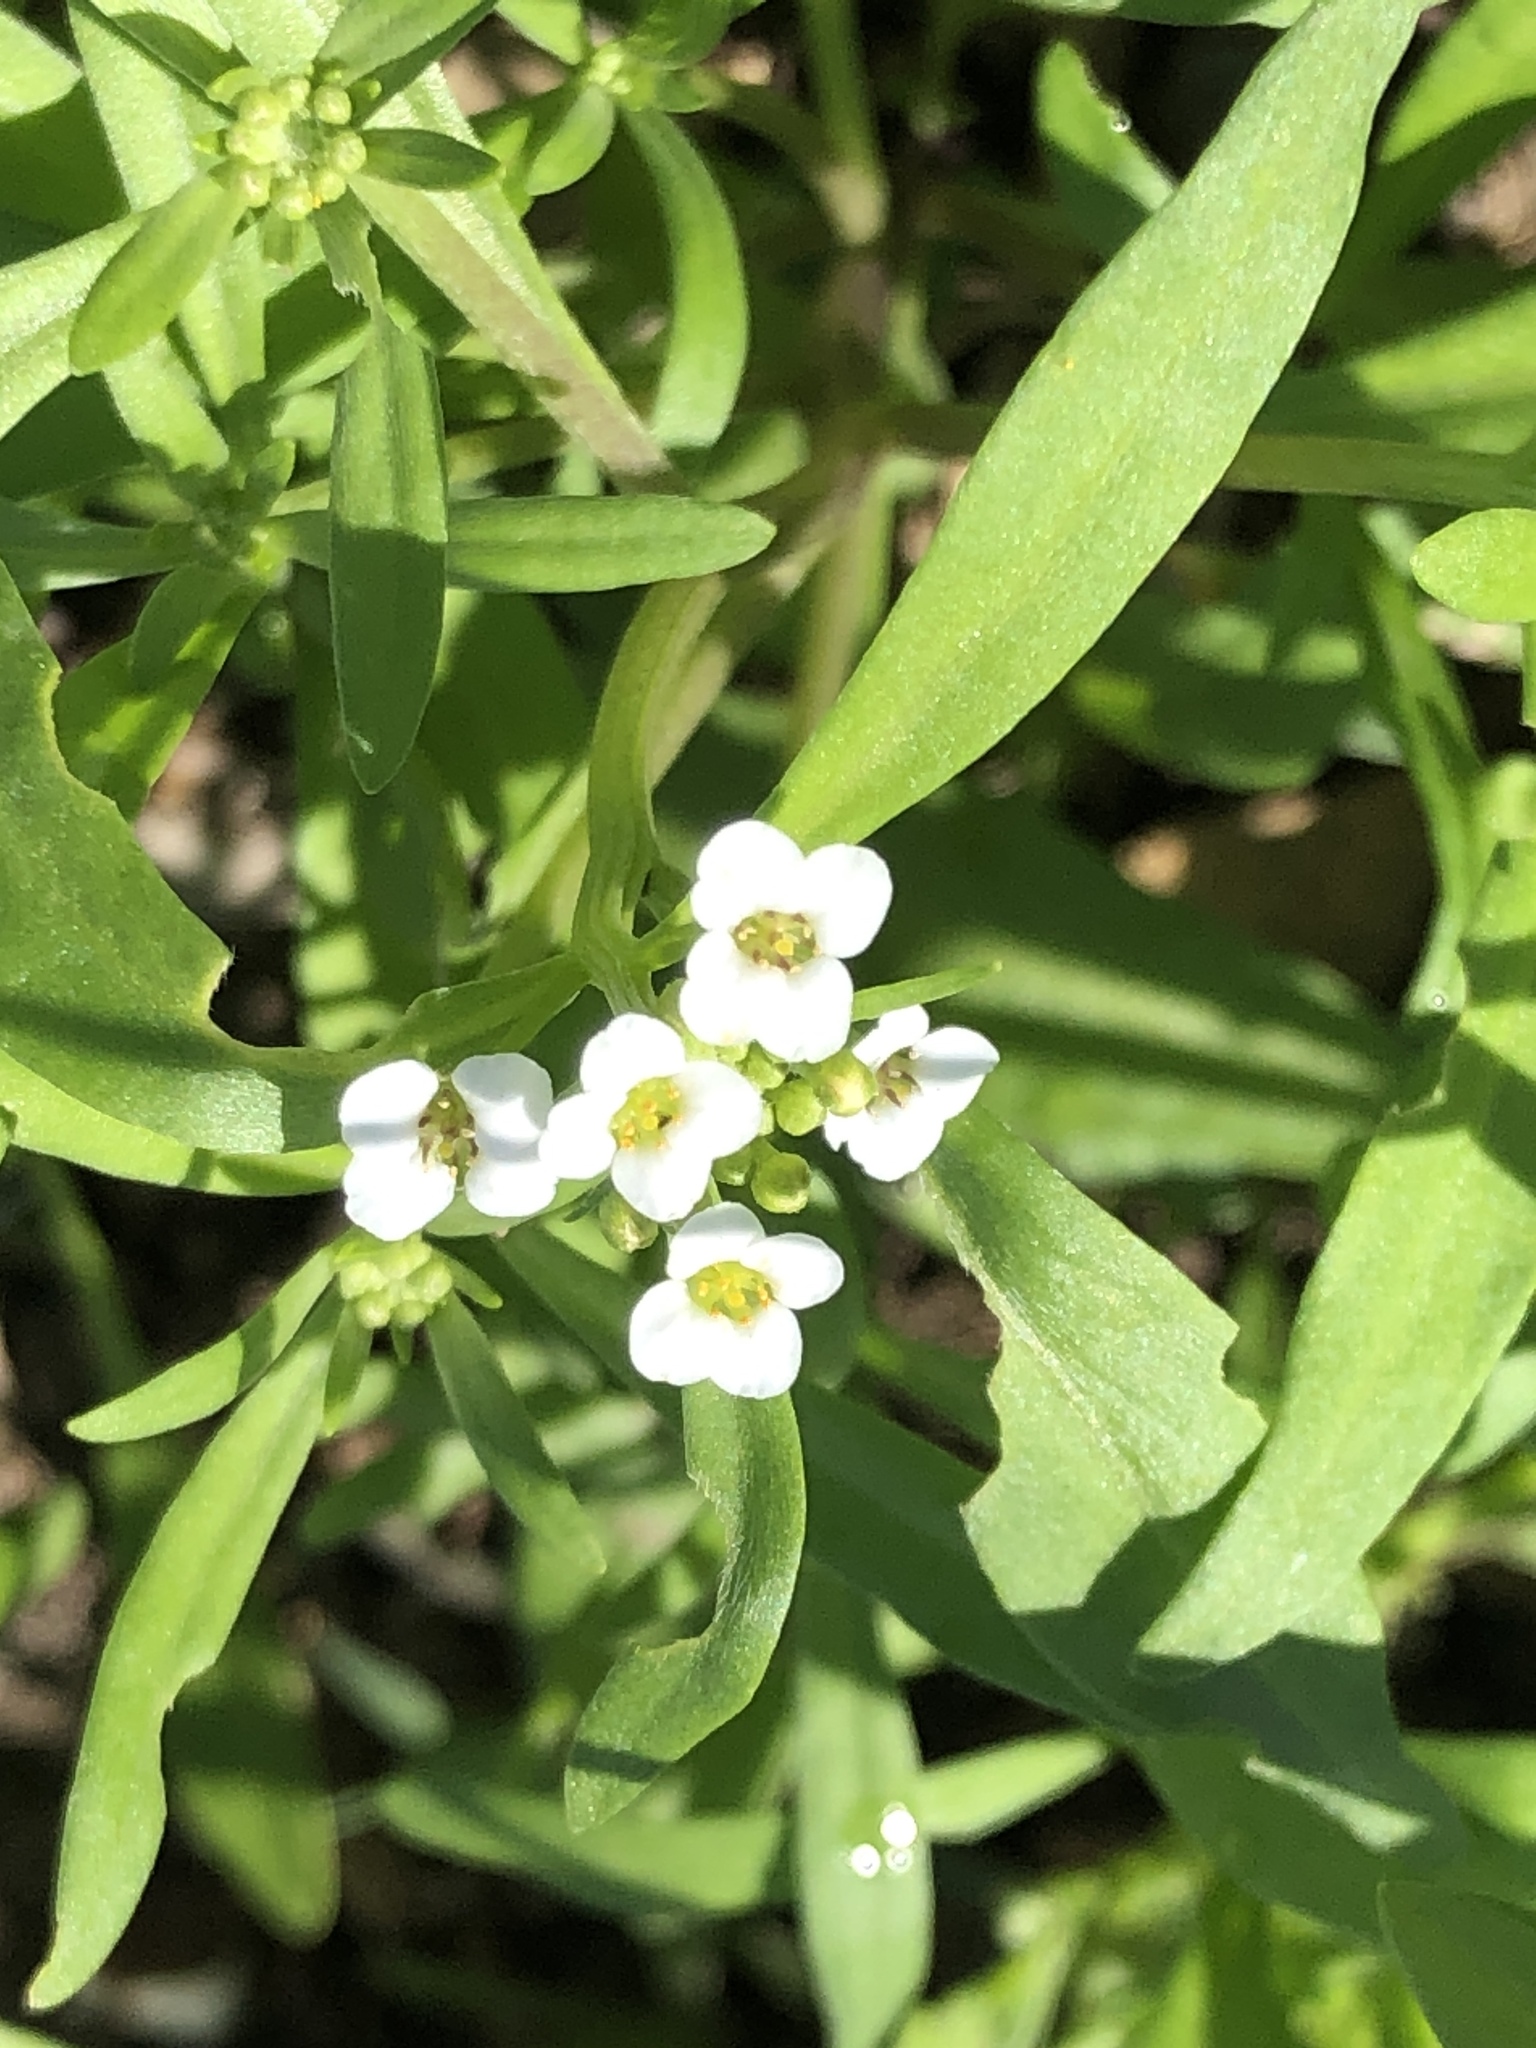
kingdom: Plantae
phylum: Tracheophyta
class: Magnoliopsida
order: Brassicales
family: Brassicaceae
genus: Lobularia
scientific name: Lobularia maritima
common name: Sweet alison
